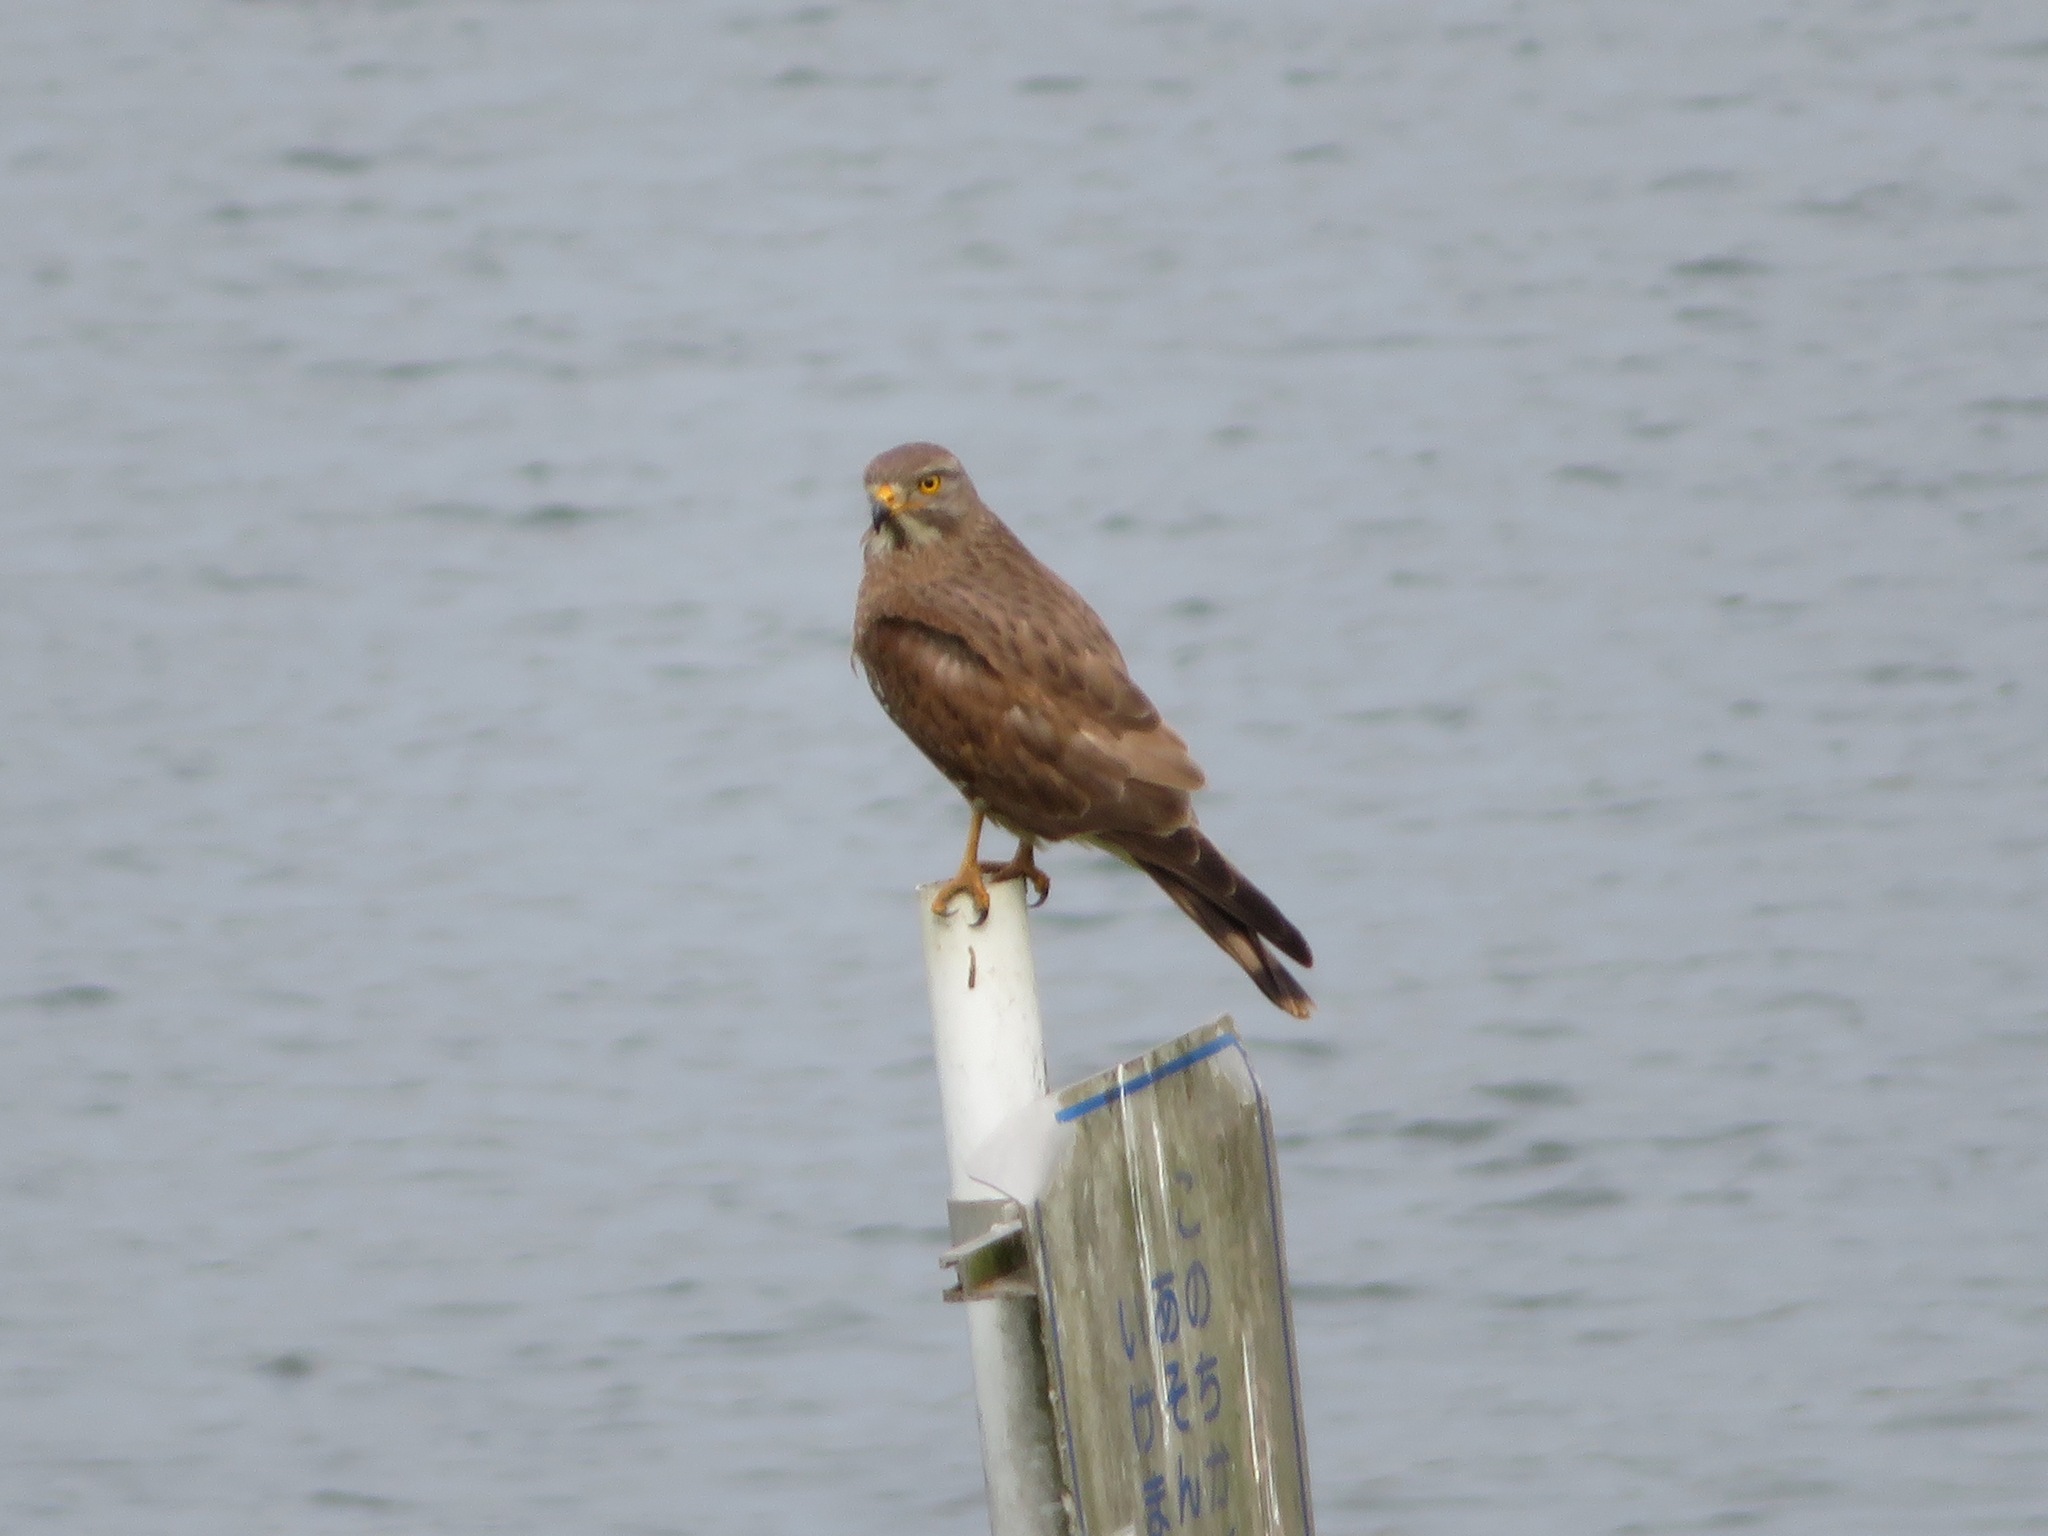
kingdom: Animalia
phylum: Chordata
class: Aves
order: Accipitriformes
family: Accipitridae
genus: Butastur
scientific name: Butastur indicus
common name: Grey-faced buzzard
